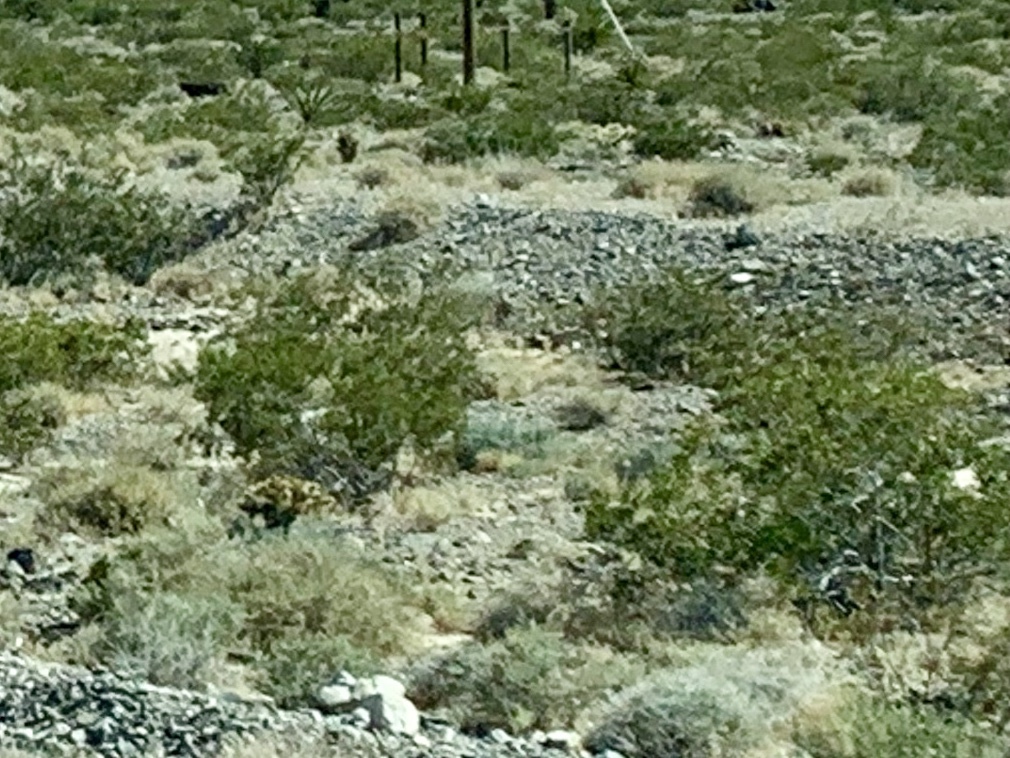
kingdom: Plantae
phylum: Tracheophyta
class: Magnoliopsida
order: Zygophyllales
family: Zygophyllaceae
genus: Larrea
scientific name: Larrea tridentata
